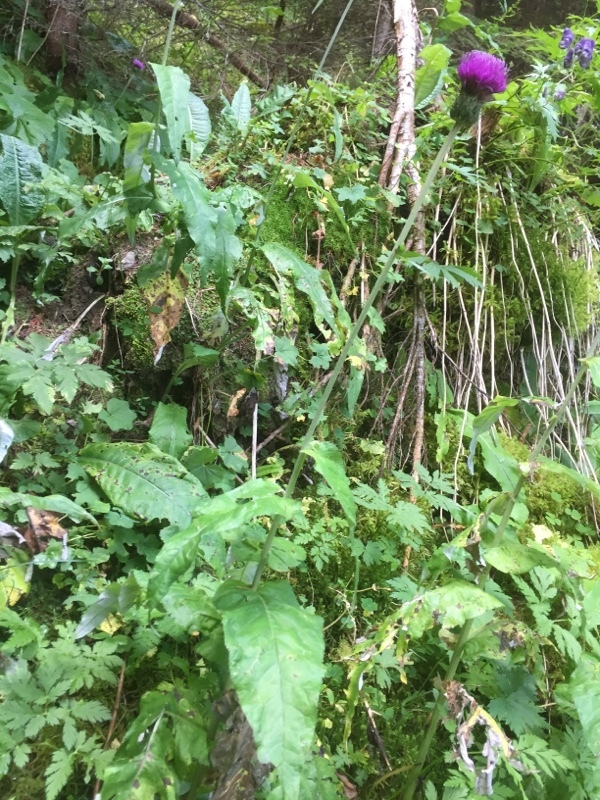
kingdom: Plantae
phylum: Tracheophyta
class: Magnoliopsida
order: Asterales
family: Asteraceae
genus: Cirsium
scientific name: Cirsium heterophyllum
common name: Melancholy thistle
